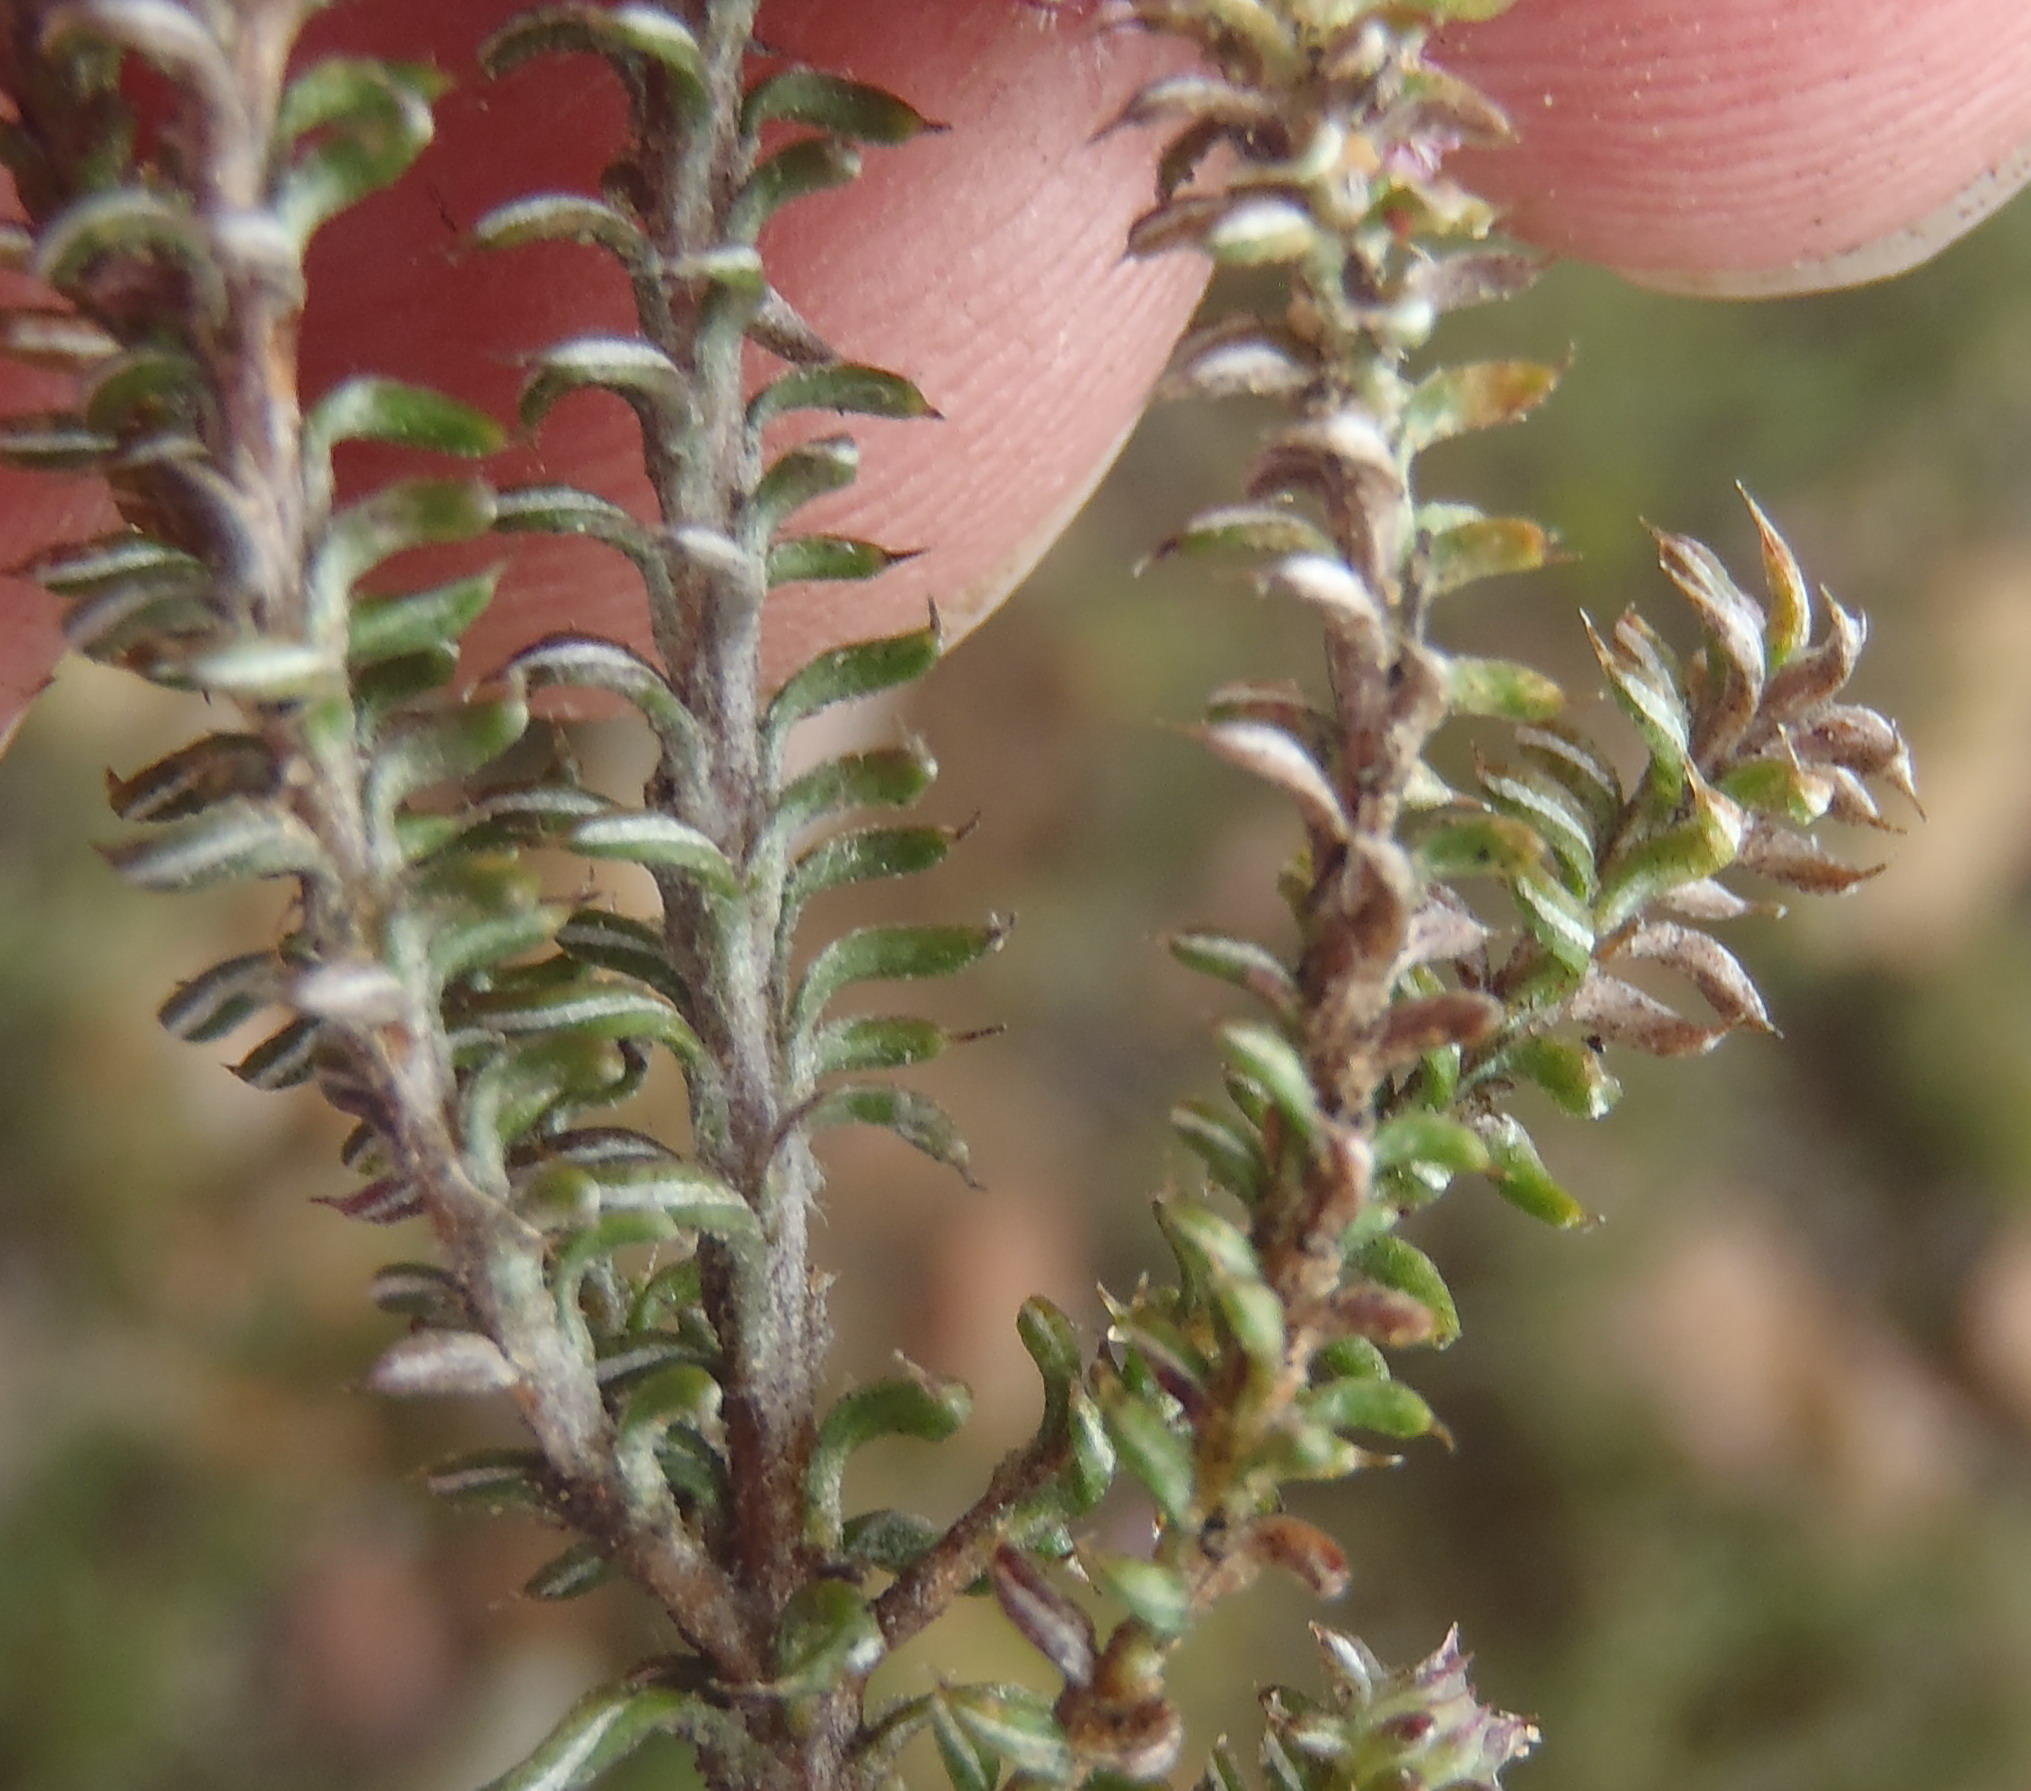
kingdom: Plantae
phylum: Tracheophyta
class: Magnoliopsida
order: Asterales
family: Asteraceae
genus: Disparago
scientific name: Disparago tortilis
